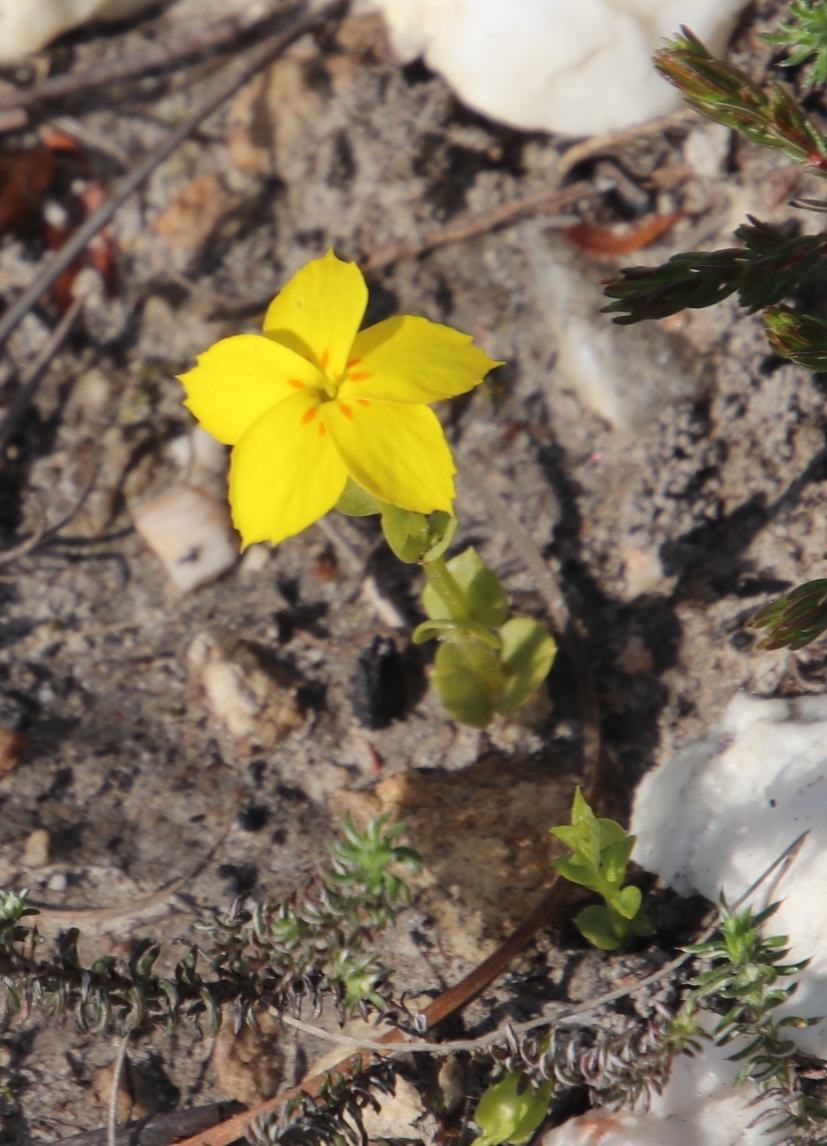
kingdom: Plantae
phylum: Tracheophyta
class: Magnoliopsida
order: Gentianales
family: Gentianaceae
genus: Sebaea
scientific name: Sebaea exacoides
